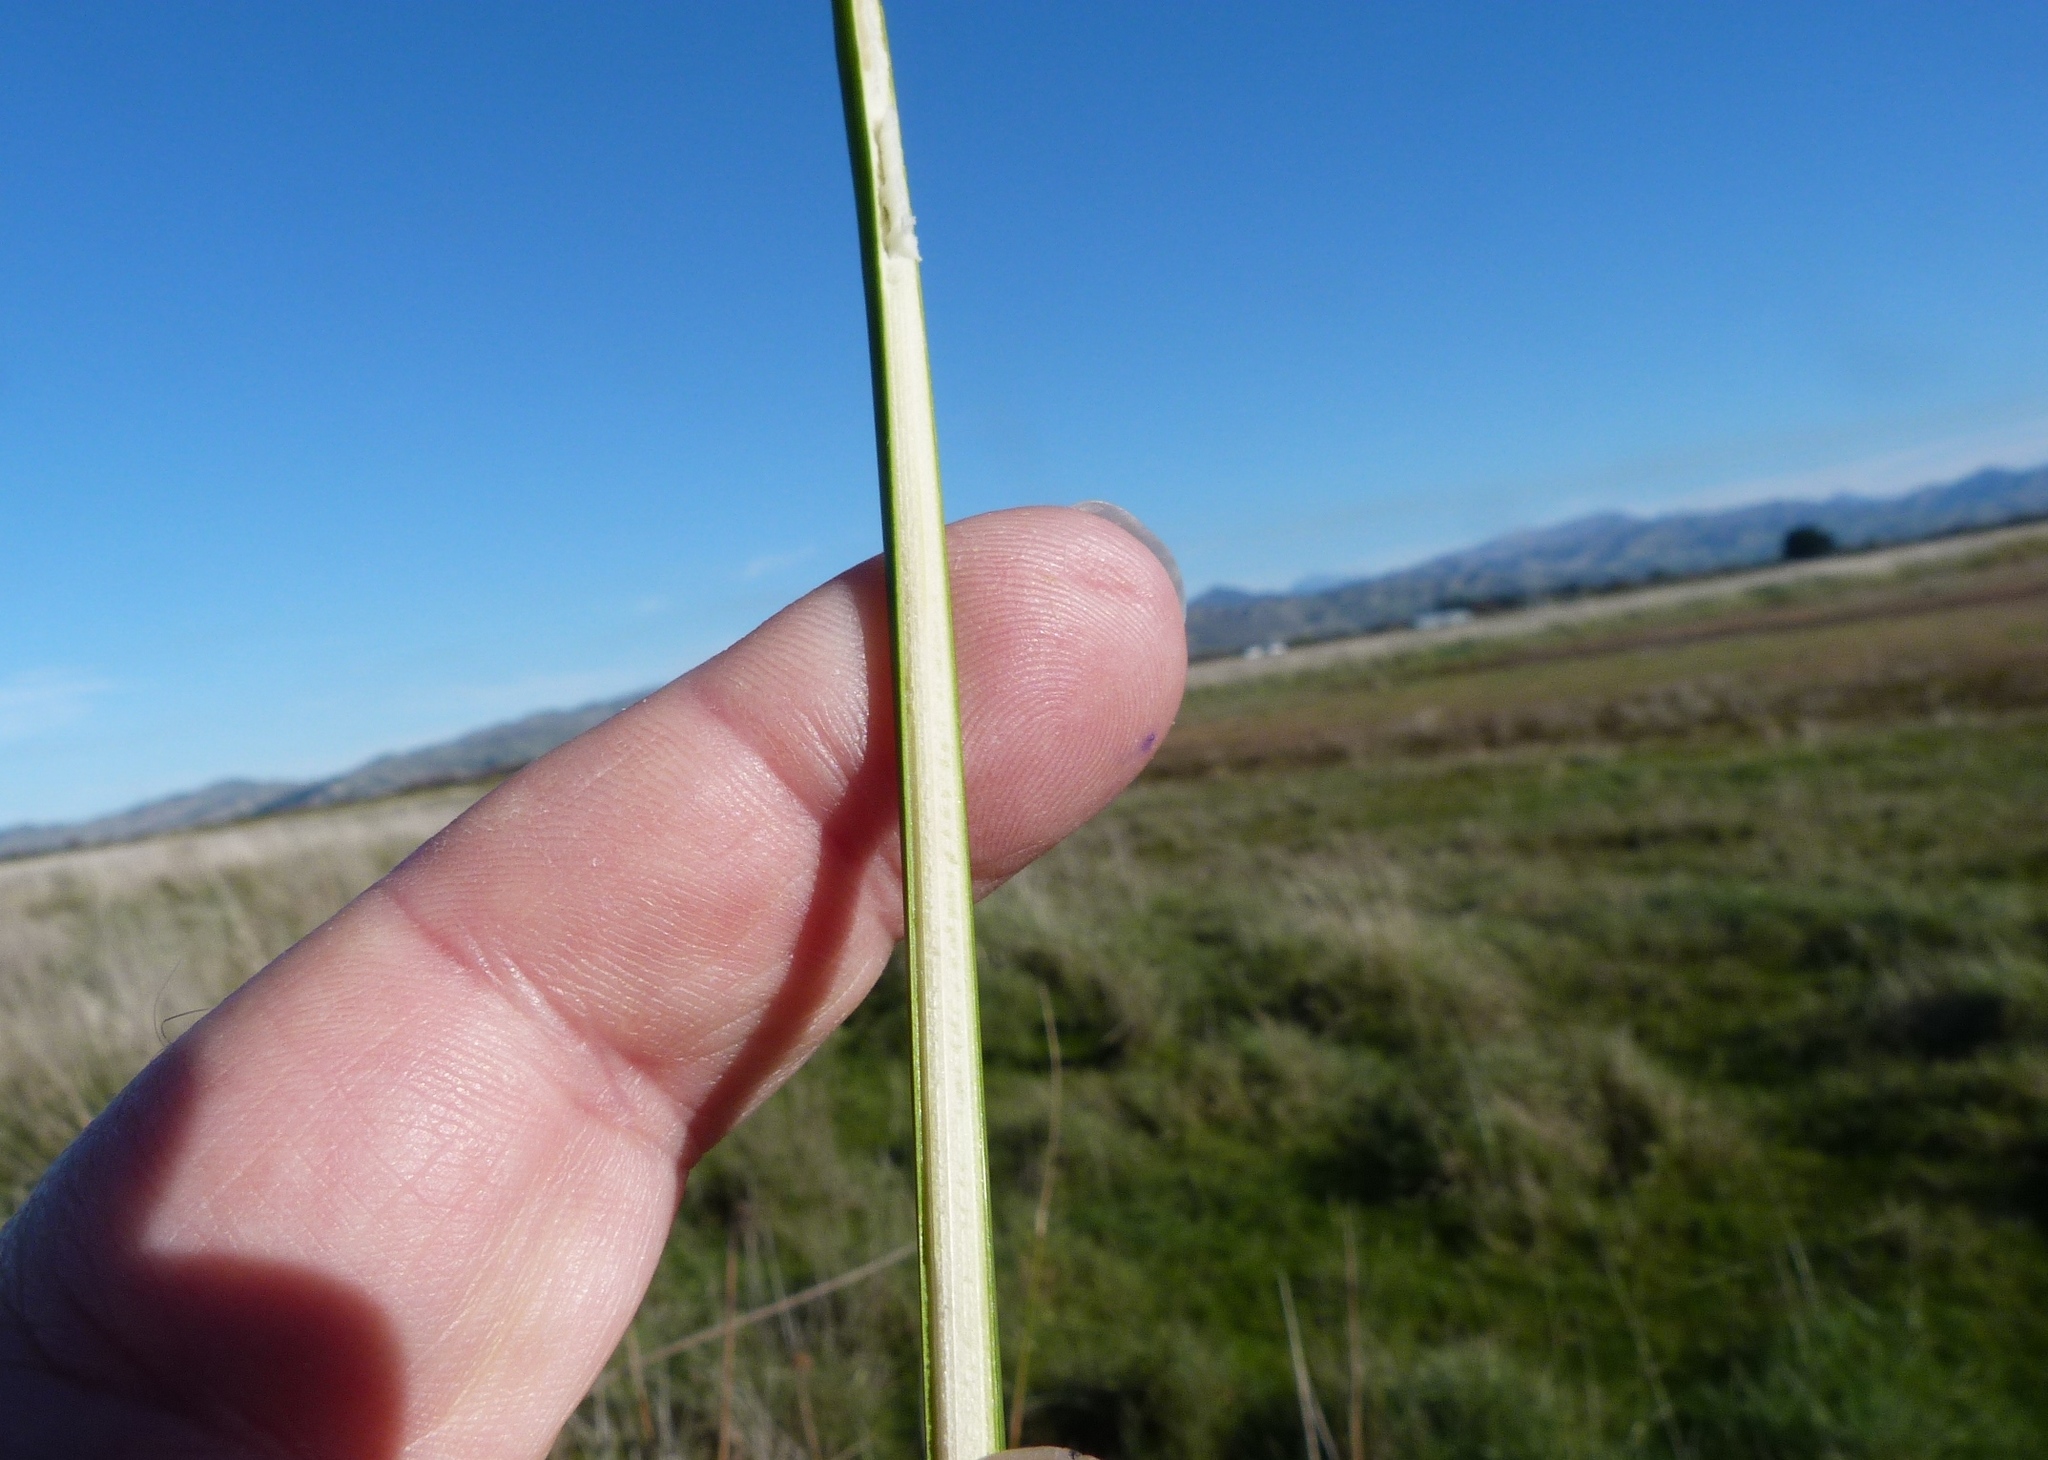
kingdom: Plantae
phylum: Tracheophyta
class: Liliopsida
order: Poales
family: Juncaceae
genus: Juncus
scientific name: Juncus pallidus
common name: Great soft-rush
